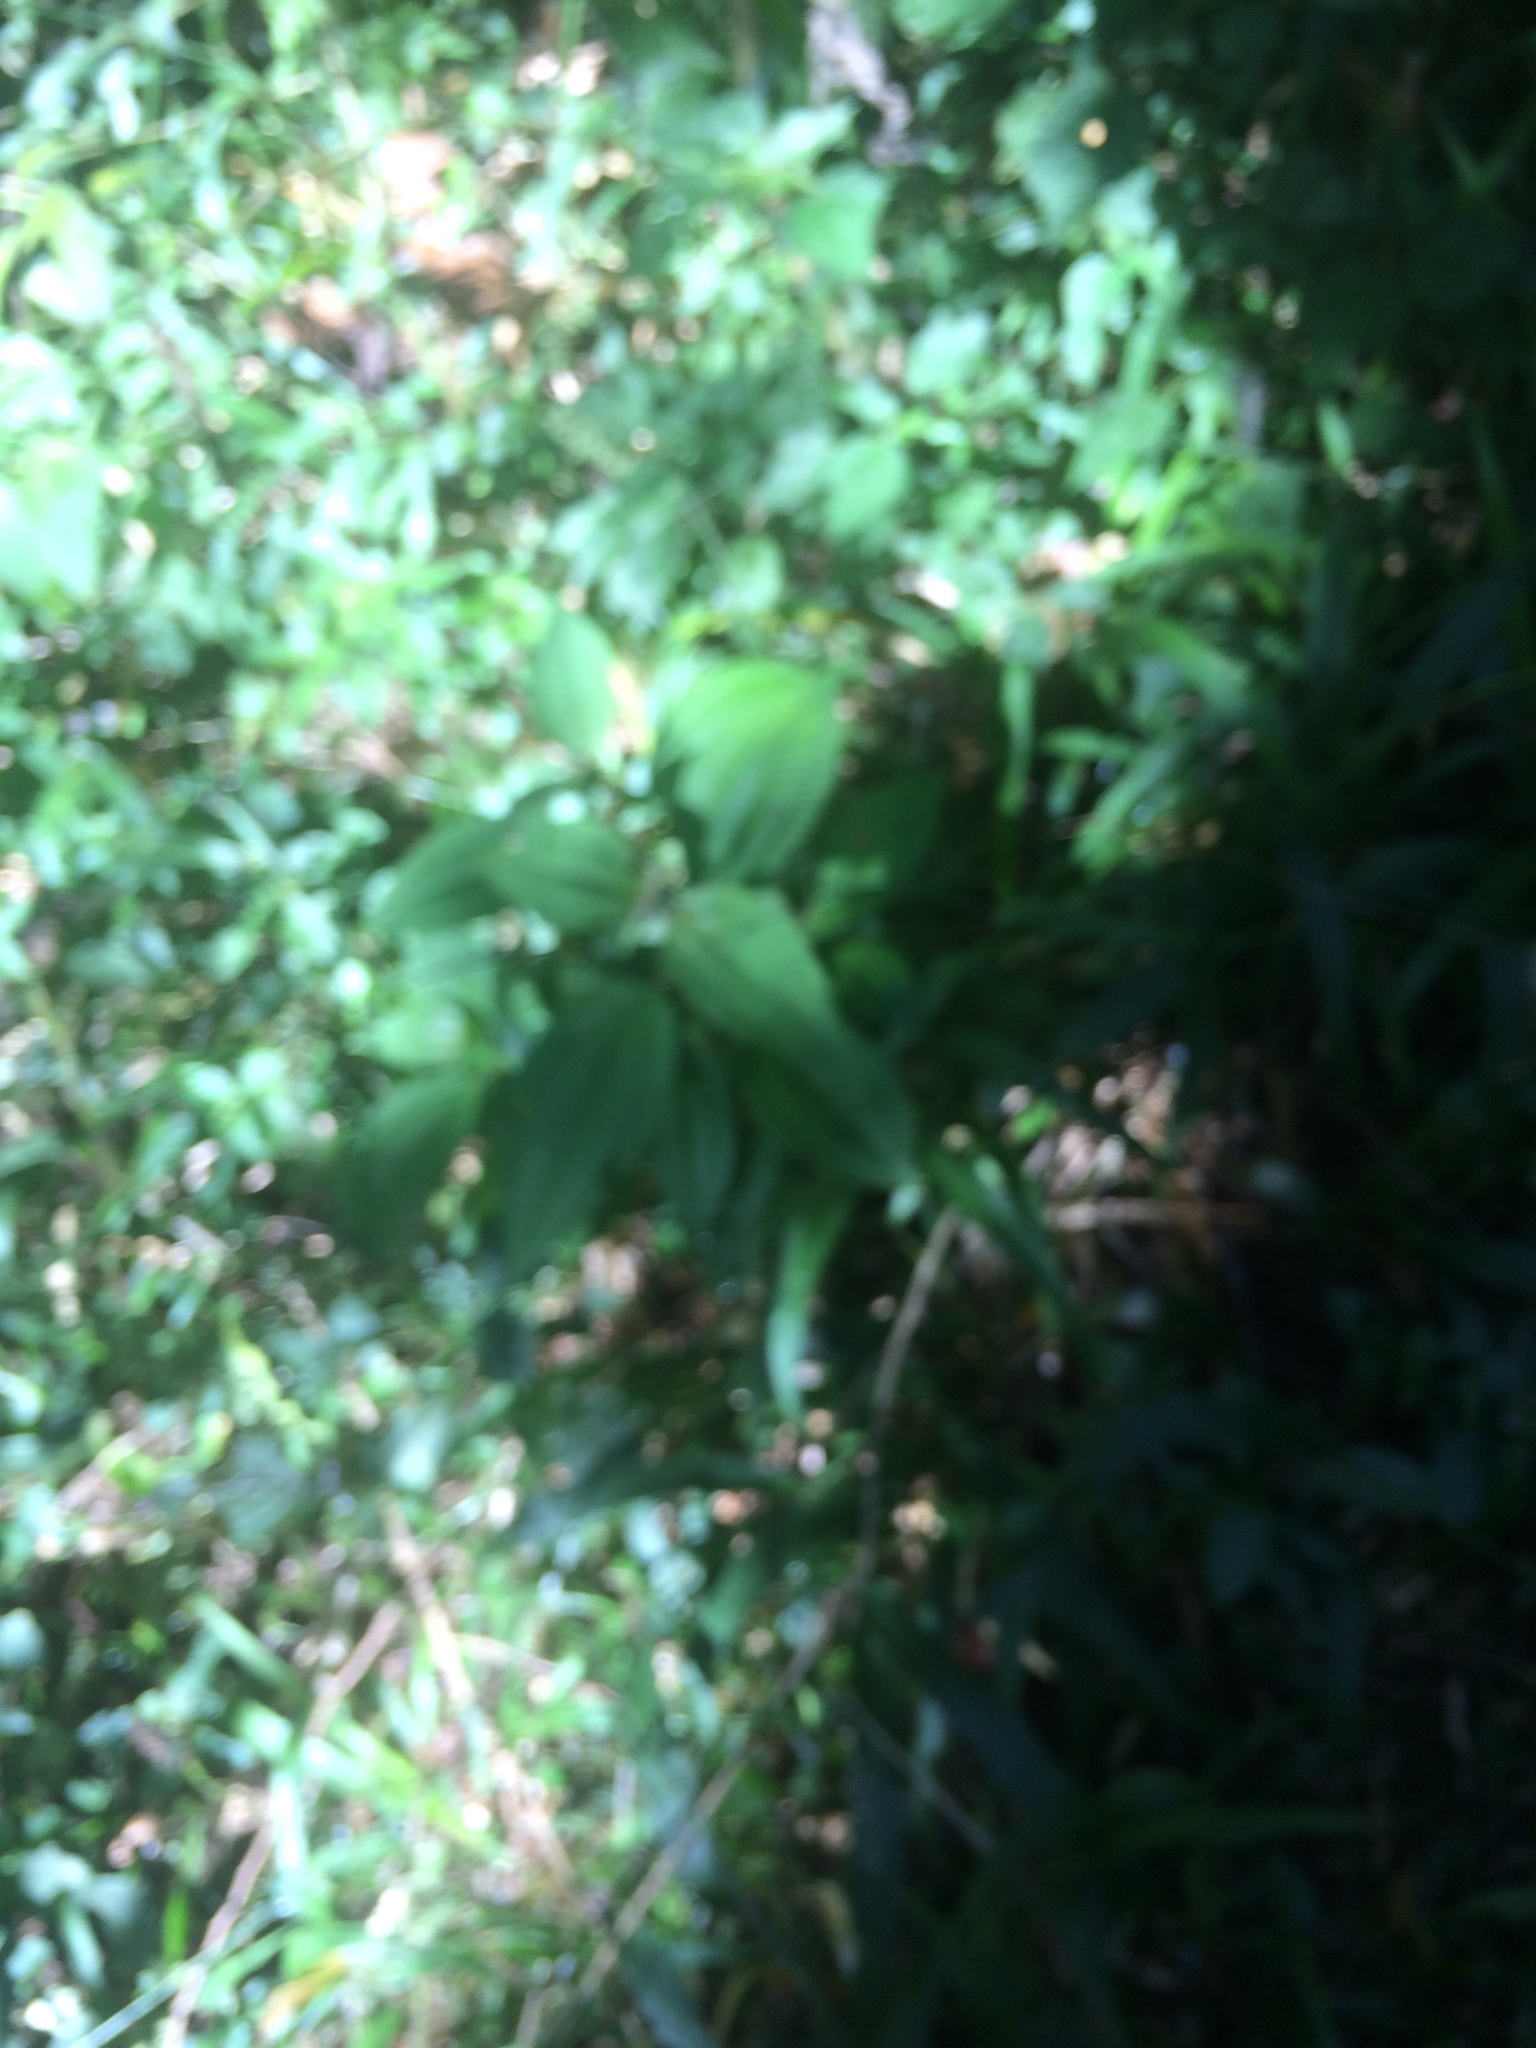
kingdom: Plantae
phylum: Tracheophyta
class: Magnoliopsida
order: Asterales
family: Asteraceae
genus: Dahlia
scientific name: Dahlia coccinea
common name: Red dahlia
